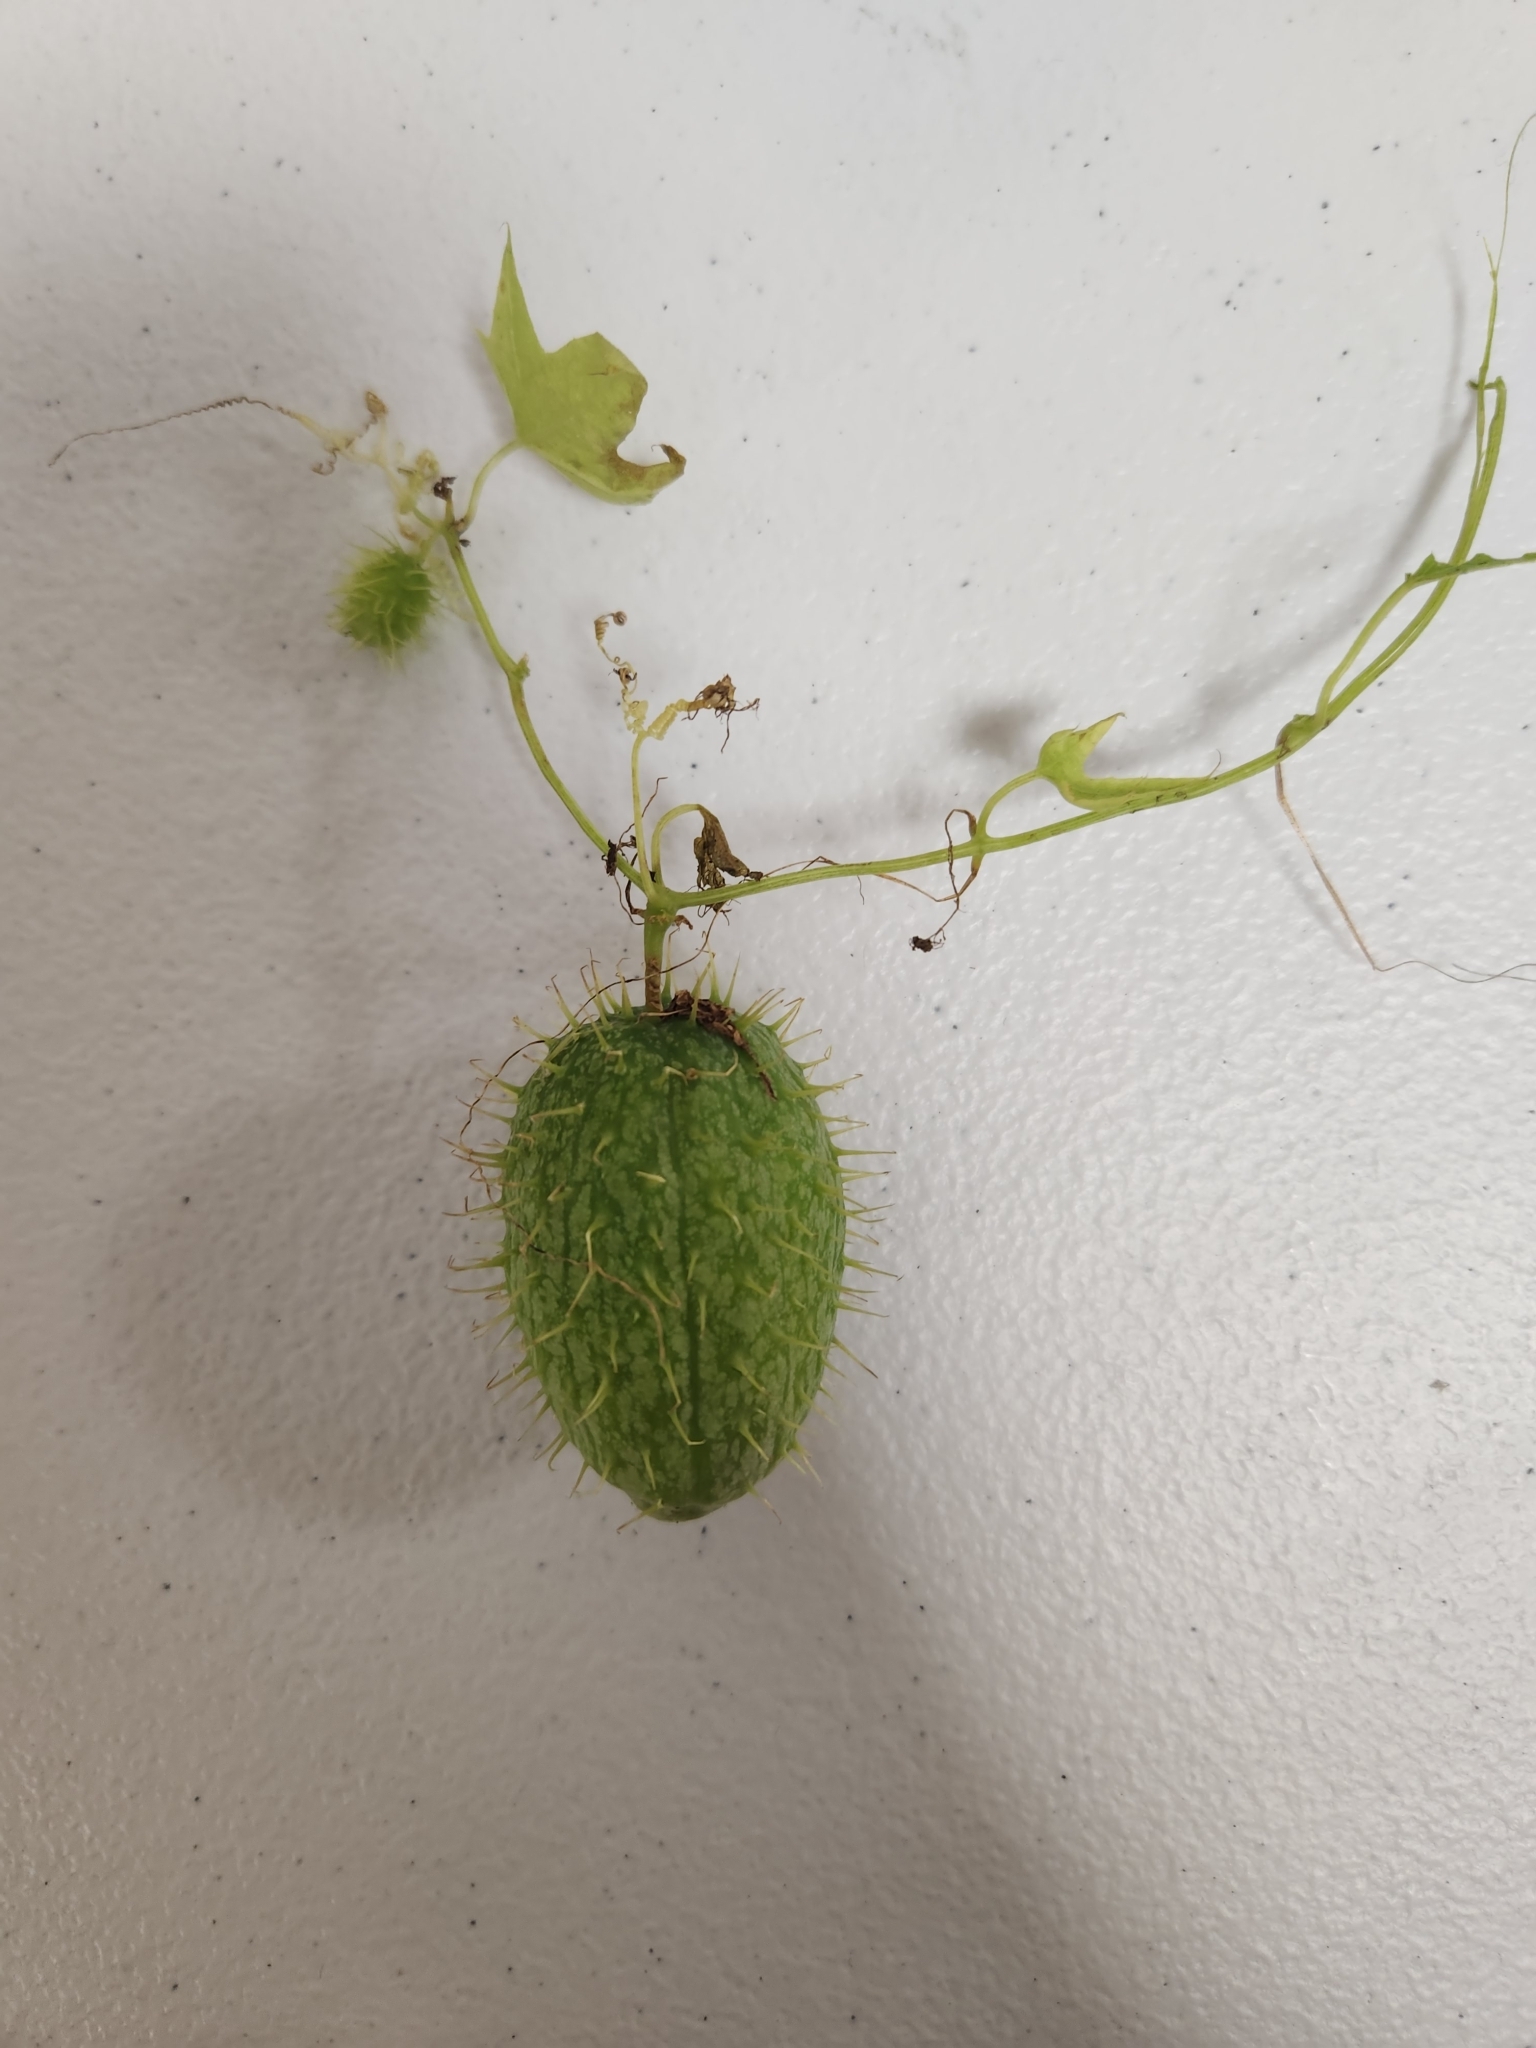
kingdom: Plantae
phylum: Tracheophyta
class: Magnoliopsida
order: Cucurbitales
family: Cucurbitaceae
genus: Echinocystis
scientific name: Echinocystis lobata
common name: Wild cucumber
